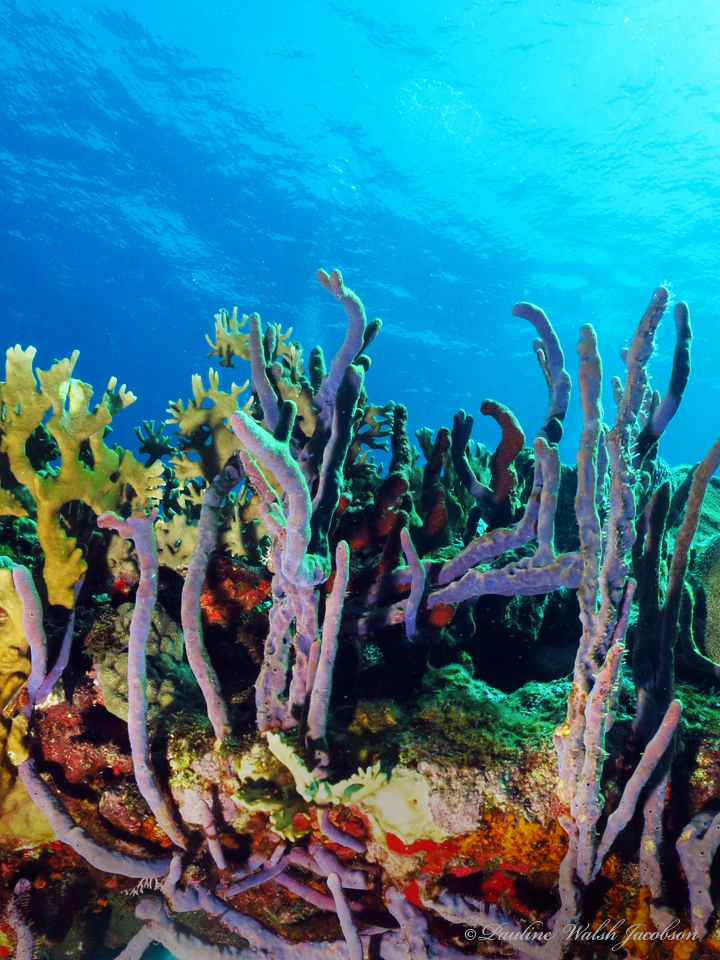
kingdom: Animalia
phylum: Porifera
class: Demospongiae
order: Verongiida
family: Aplysinidae
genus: Aplysina
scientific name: Aplysina cauliformis
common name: Branching candle sponge
